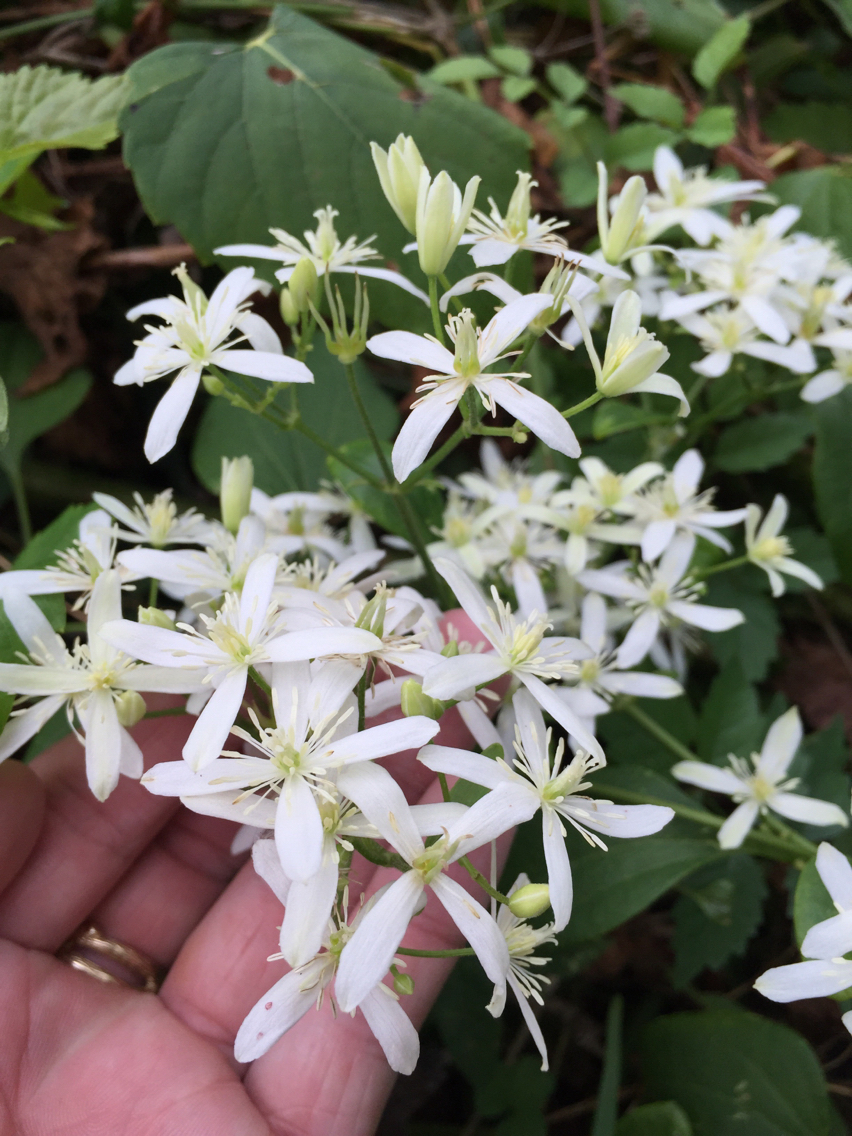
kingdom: Plantae
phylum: Tracheophyta
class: Magnoliopsida
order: Ranunculales
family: Ranunculaceae
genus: Clematis
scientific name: Clematis terniflora
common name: Sweet autumn clematis
